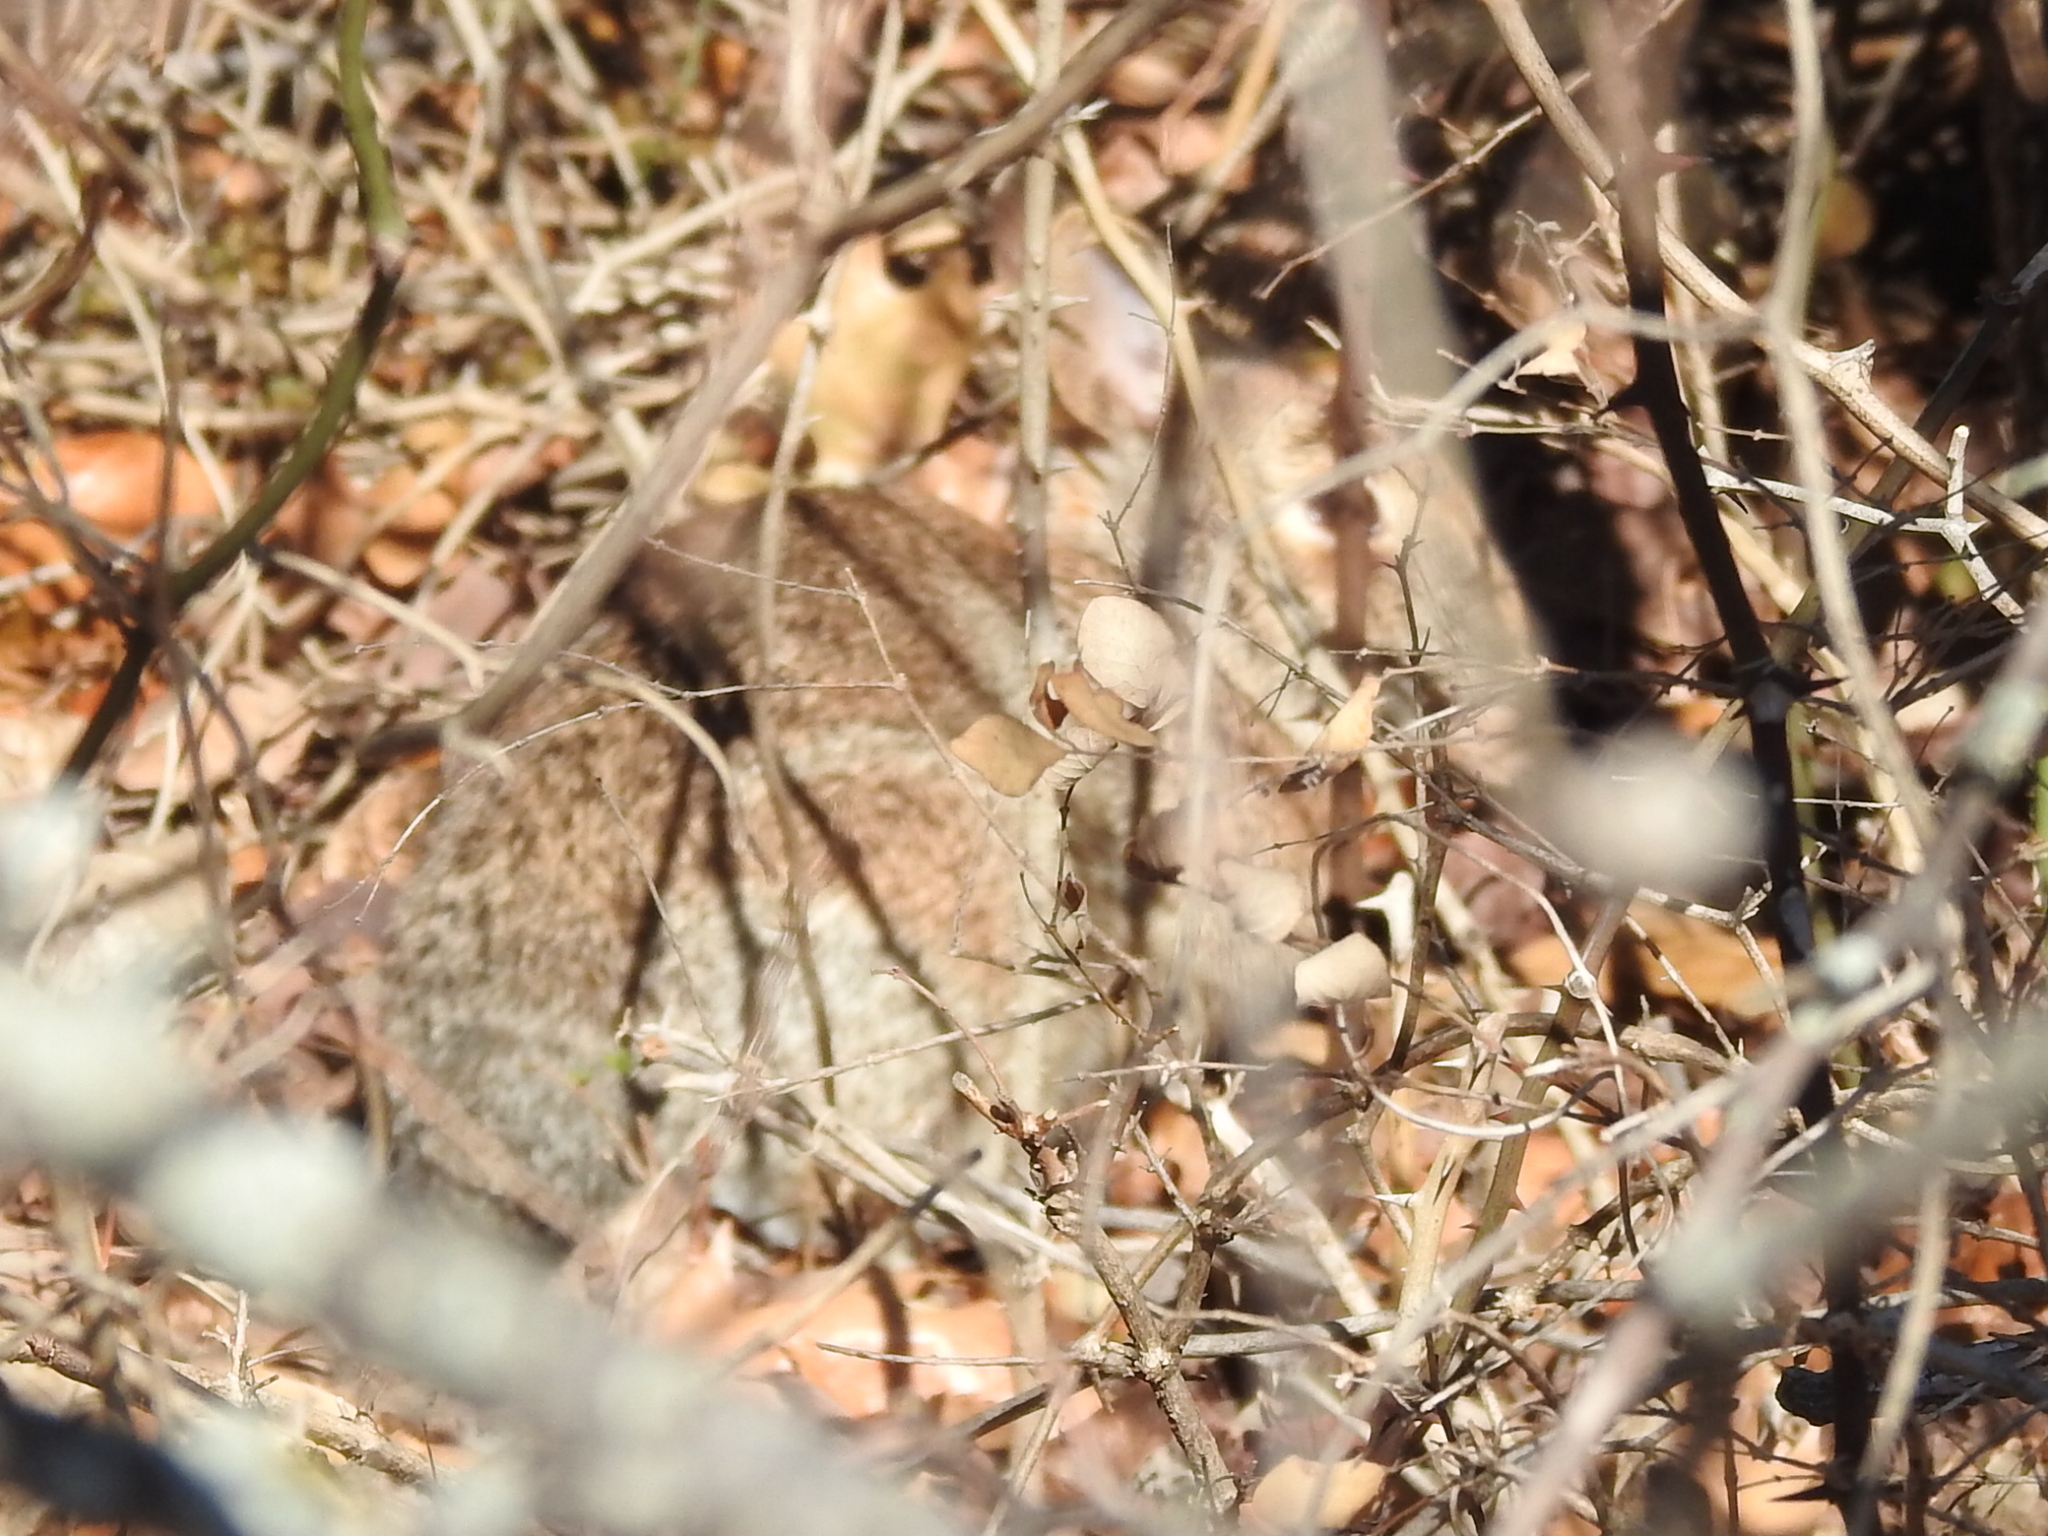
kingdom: Animalia
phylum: Chordata
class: Mammalia
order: Lagomorpha
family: Leporidae
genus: Sylvilagus
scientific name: Sylvilagus floridanus
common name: Eastern cottontail
